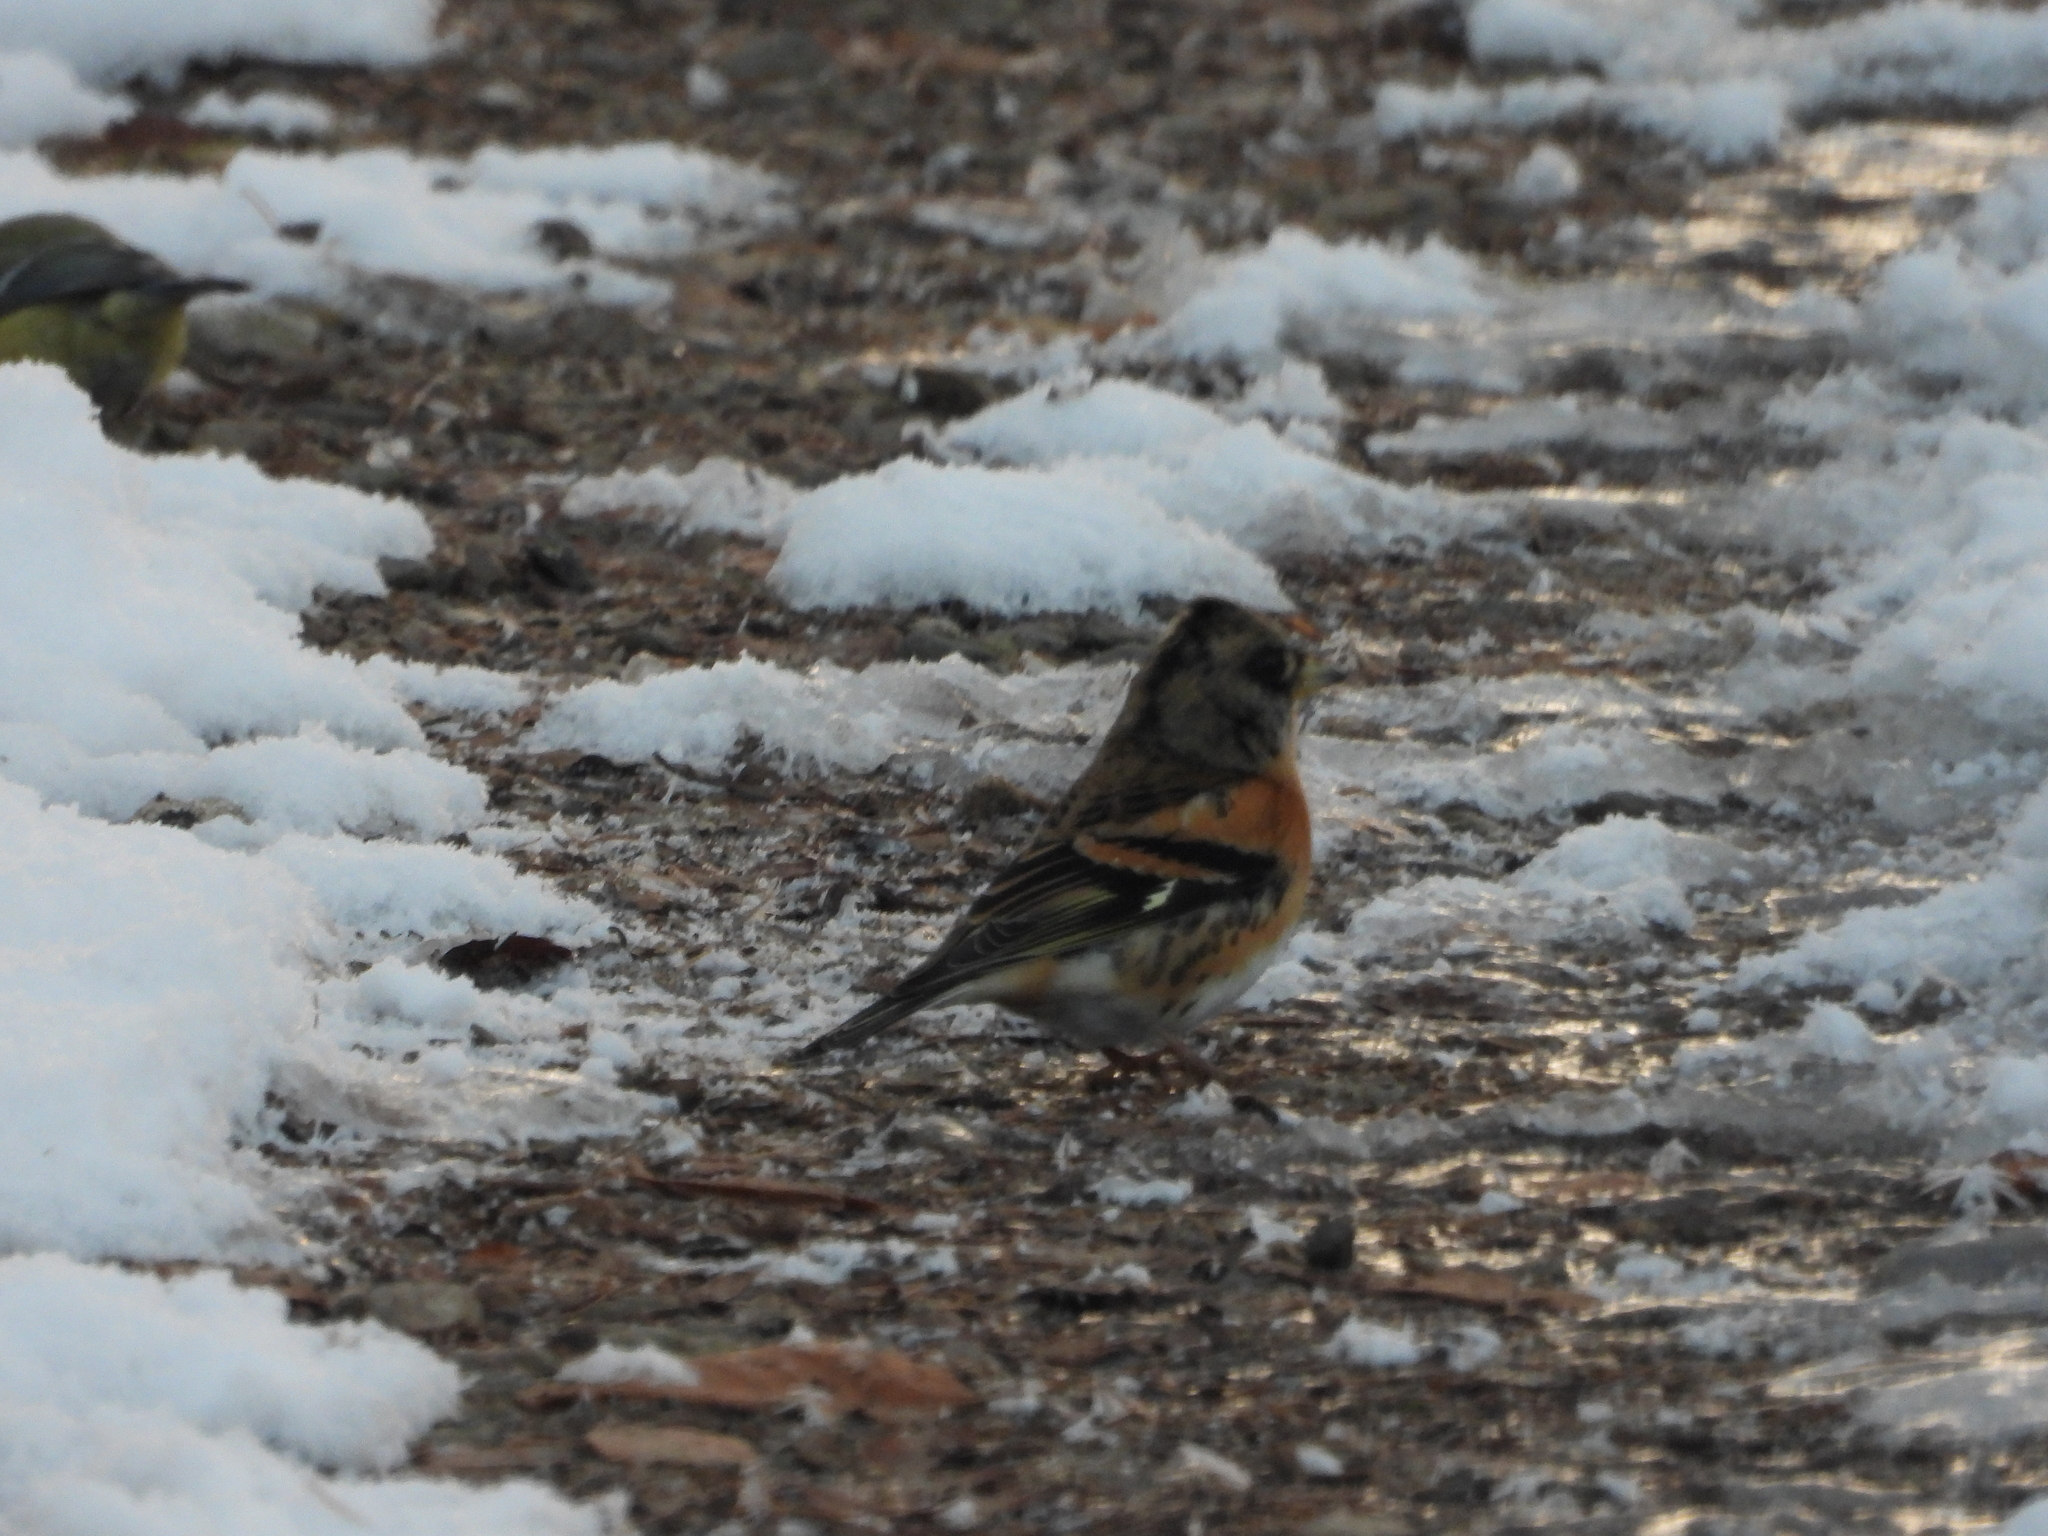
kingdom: Animalia
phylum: Chordata
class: Aves
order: Passeriformes
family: Fringillidae
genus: Fringilla
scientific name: Fringilla montifringilla
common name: Brambling
